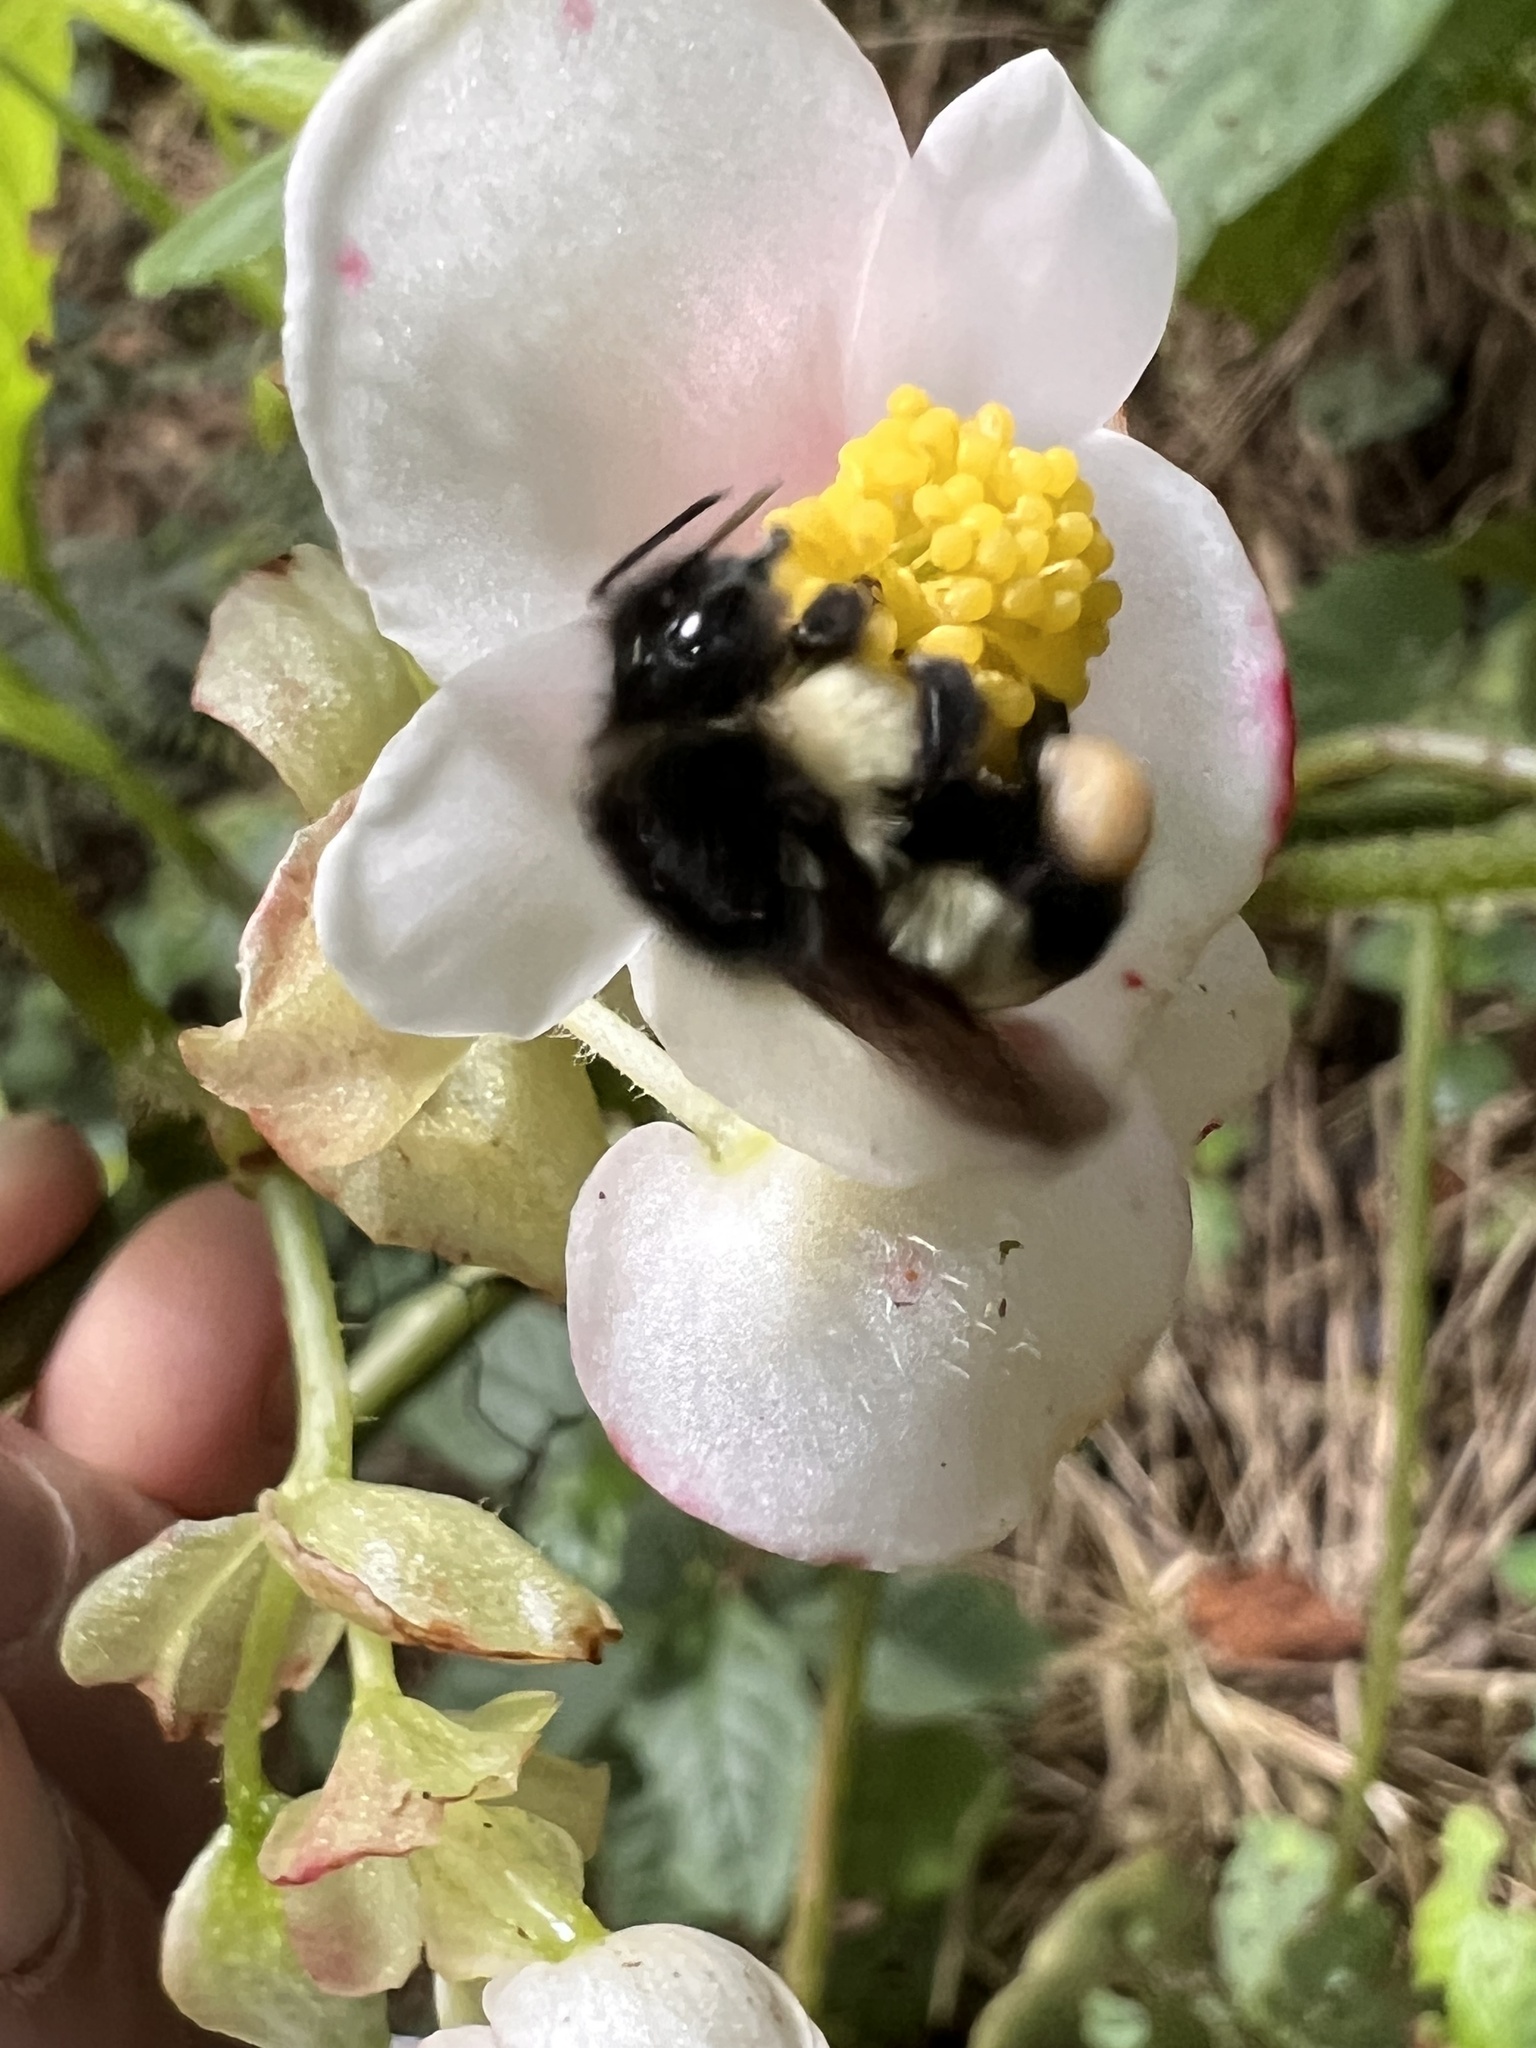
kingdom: Animalia
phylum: Arthropoda
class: Insecta
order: Hymenoptera
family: Apidae
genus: Bombus
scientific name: Bombus ephippiatus
